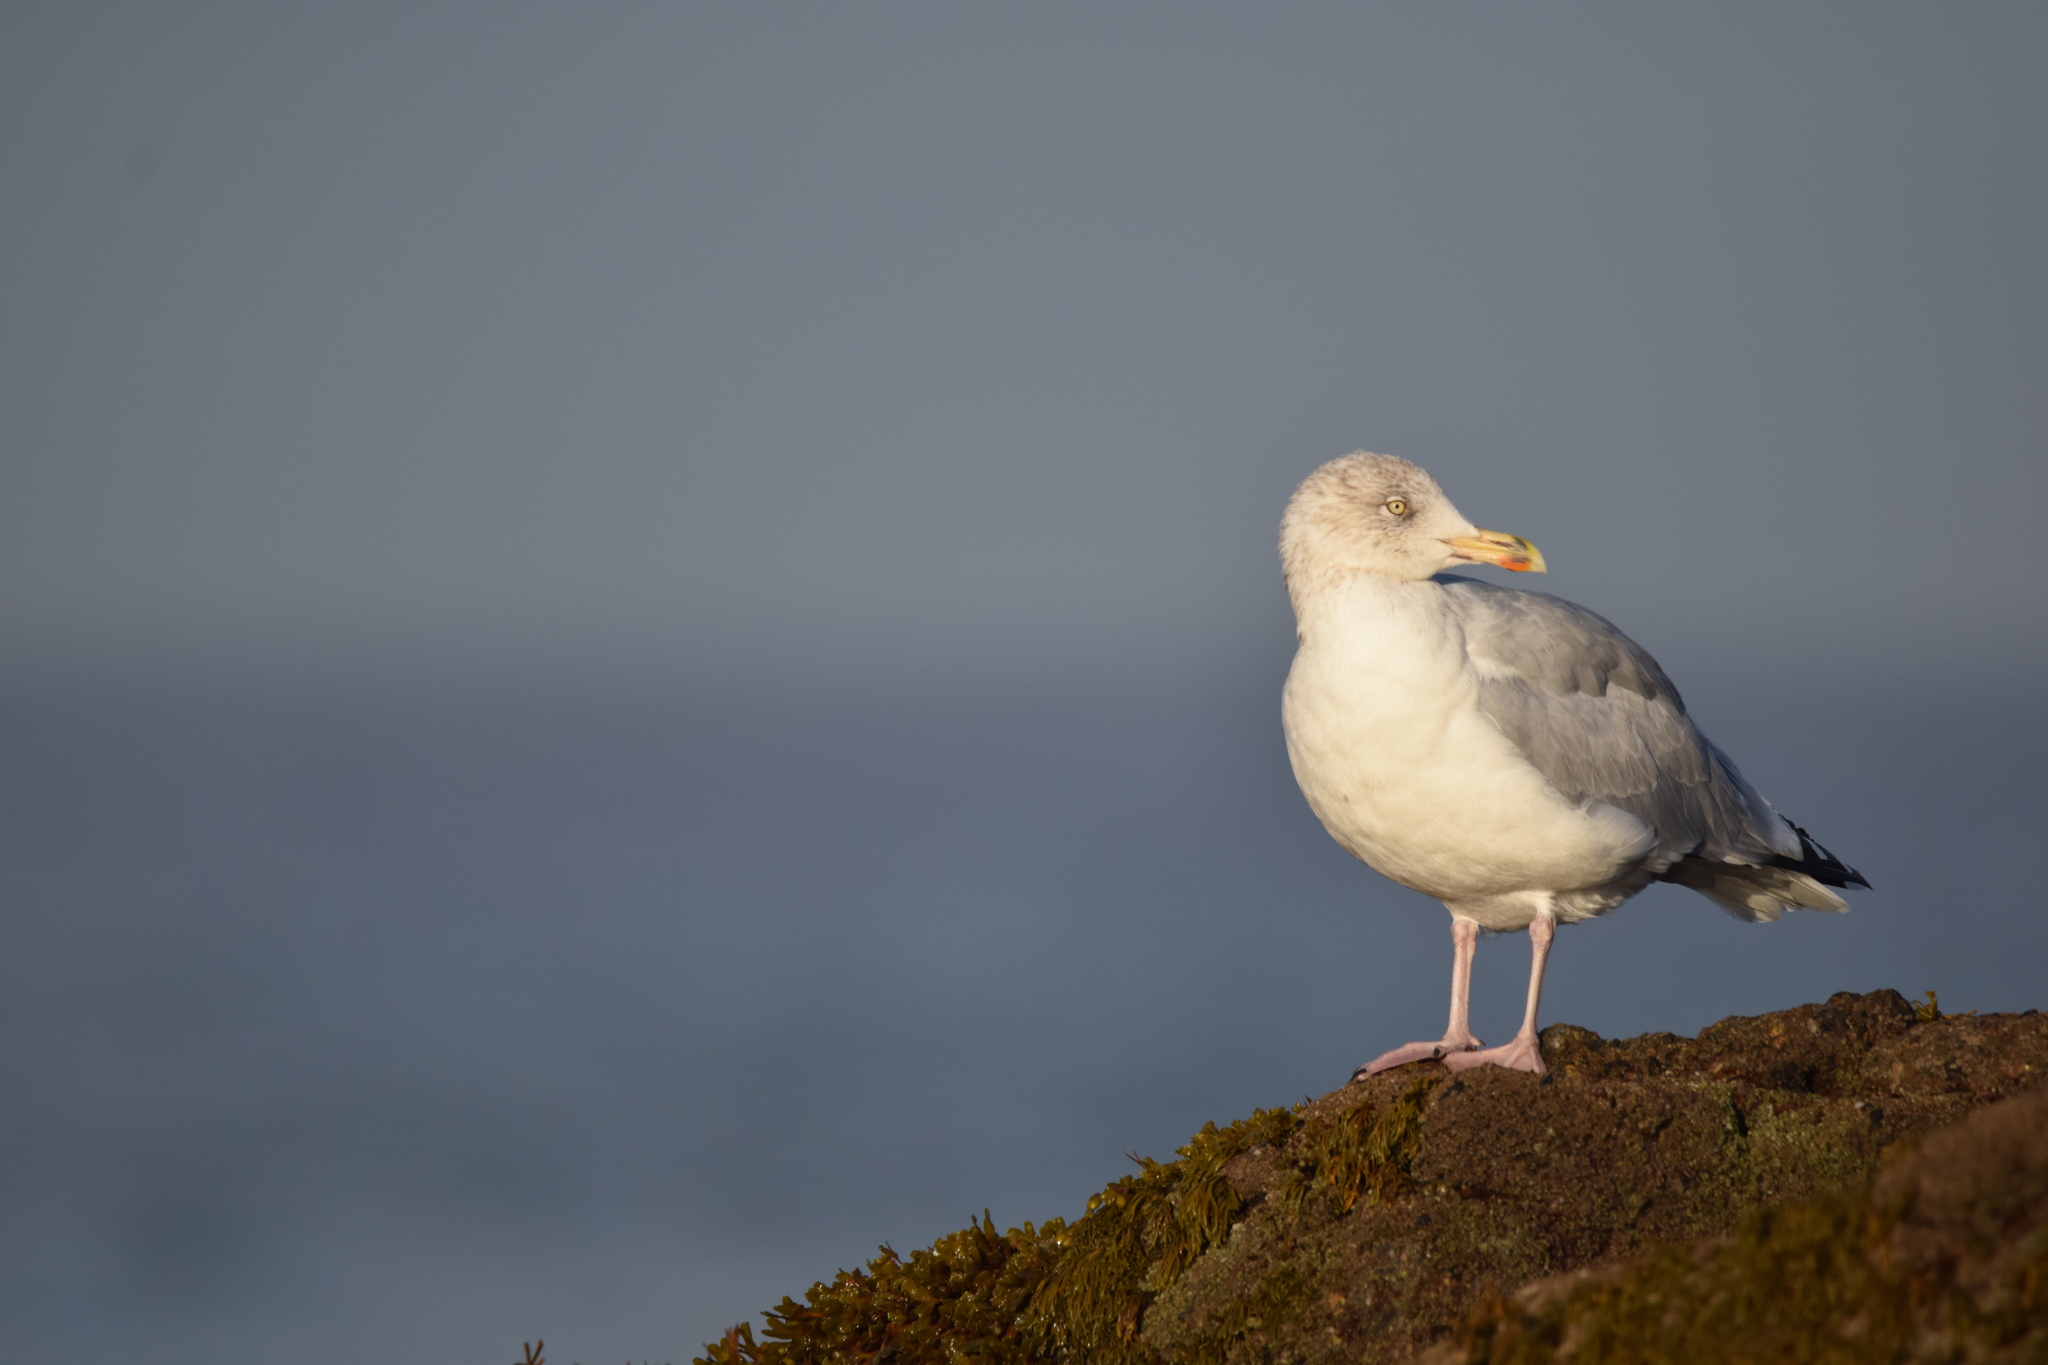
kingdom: Animalia
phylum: Chordata
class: Aves
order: Charadriiformes
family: Laridae
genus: Larus
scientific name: Larus argentatus
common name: Herring gull
